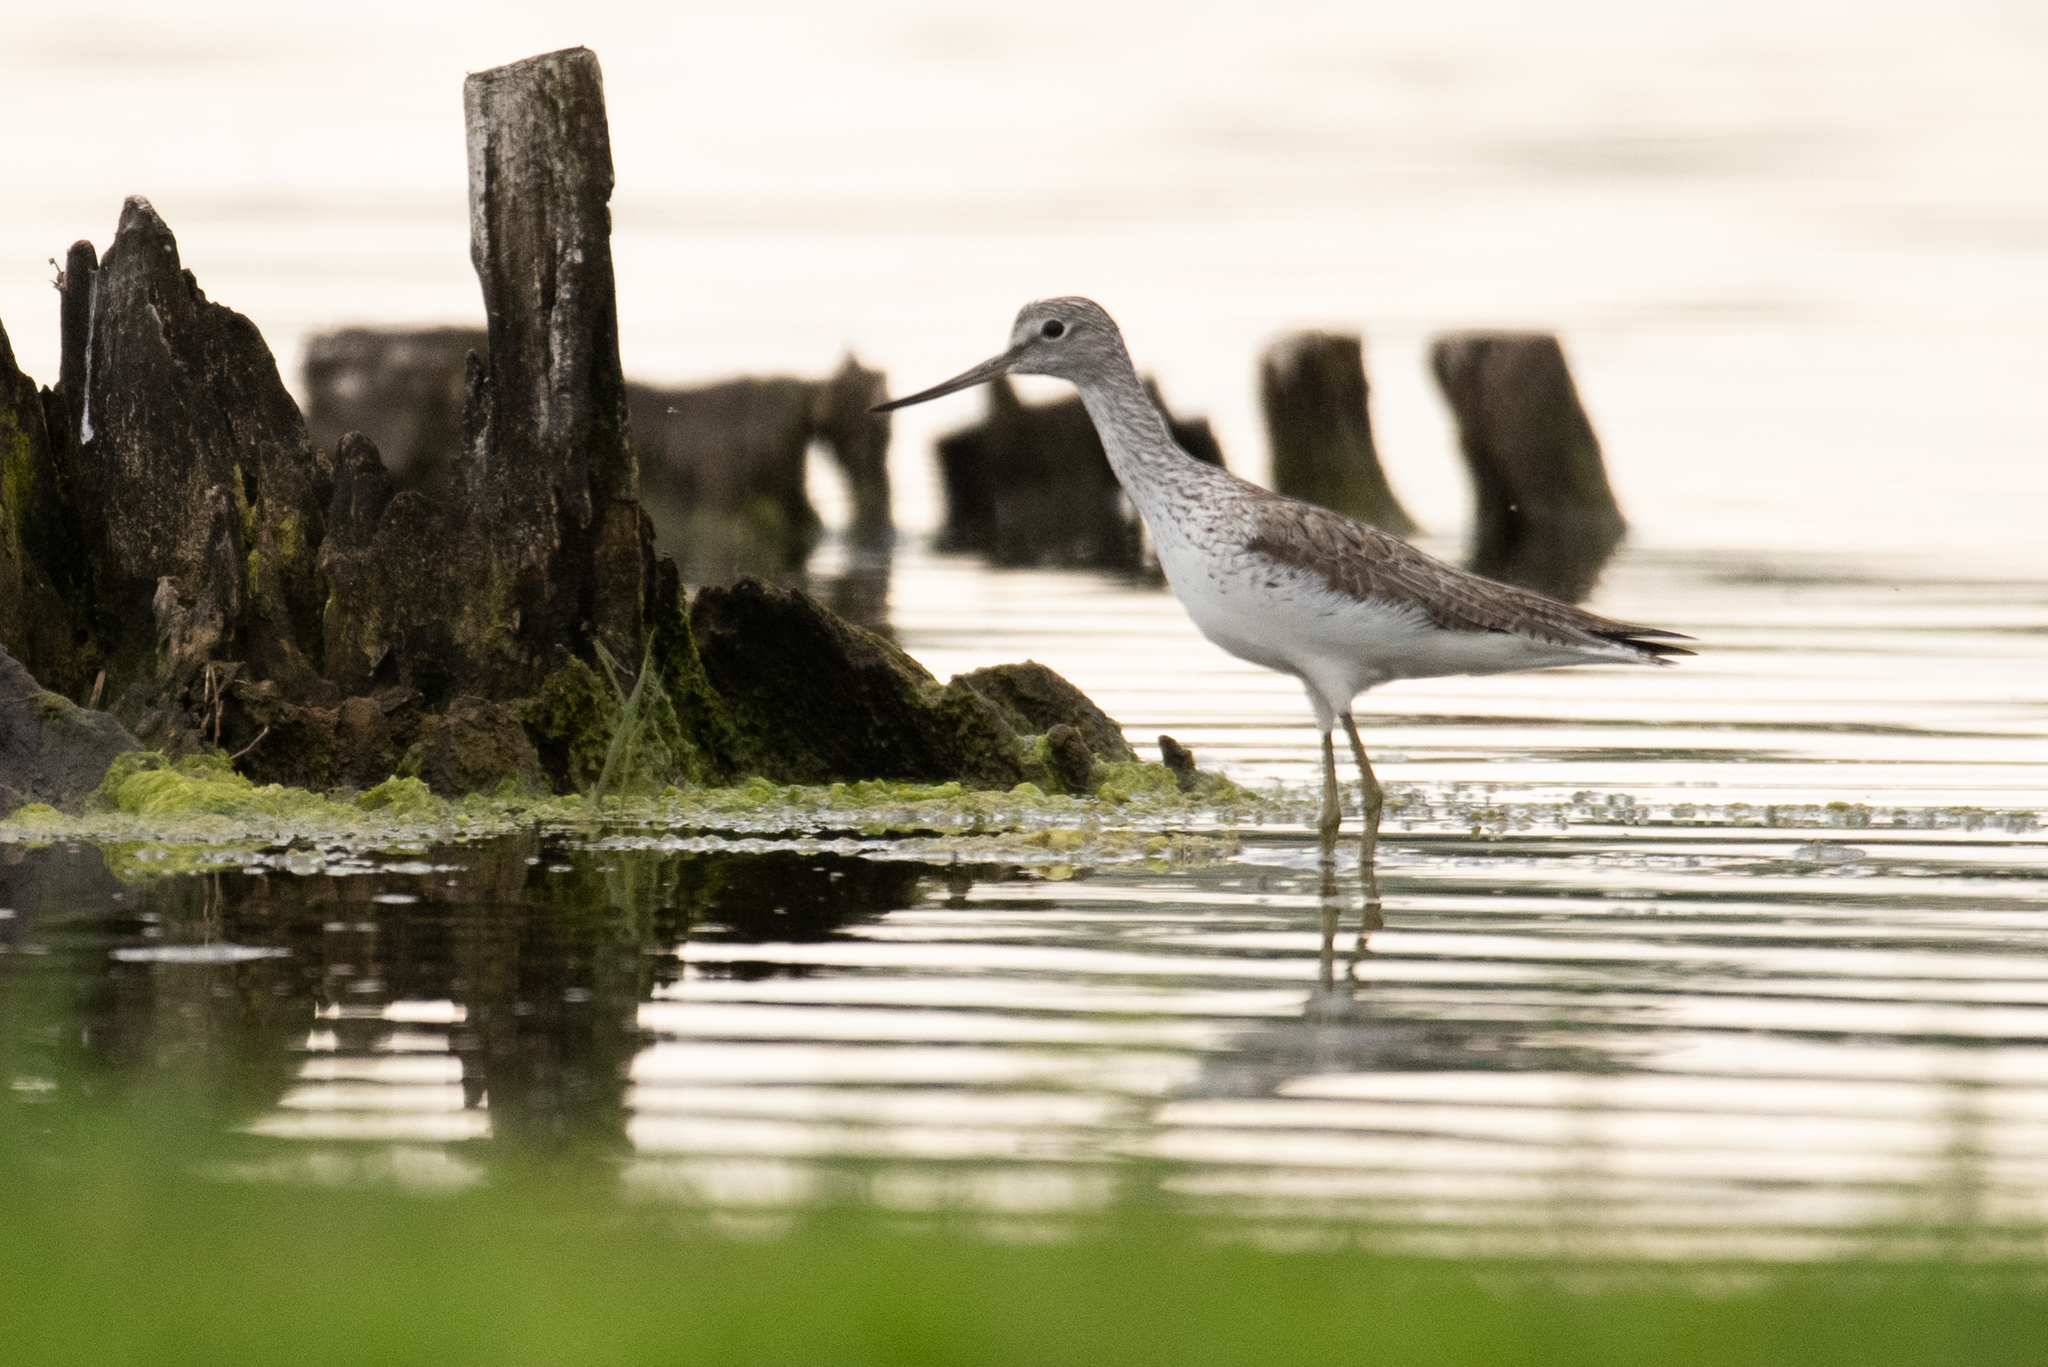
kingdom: Animalia
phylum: Chordata
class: Aves
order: Charadriiformes
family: Scolopacidae
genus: Tringa
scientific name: Tringa nebularia
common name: Common greenshank
